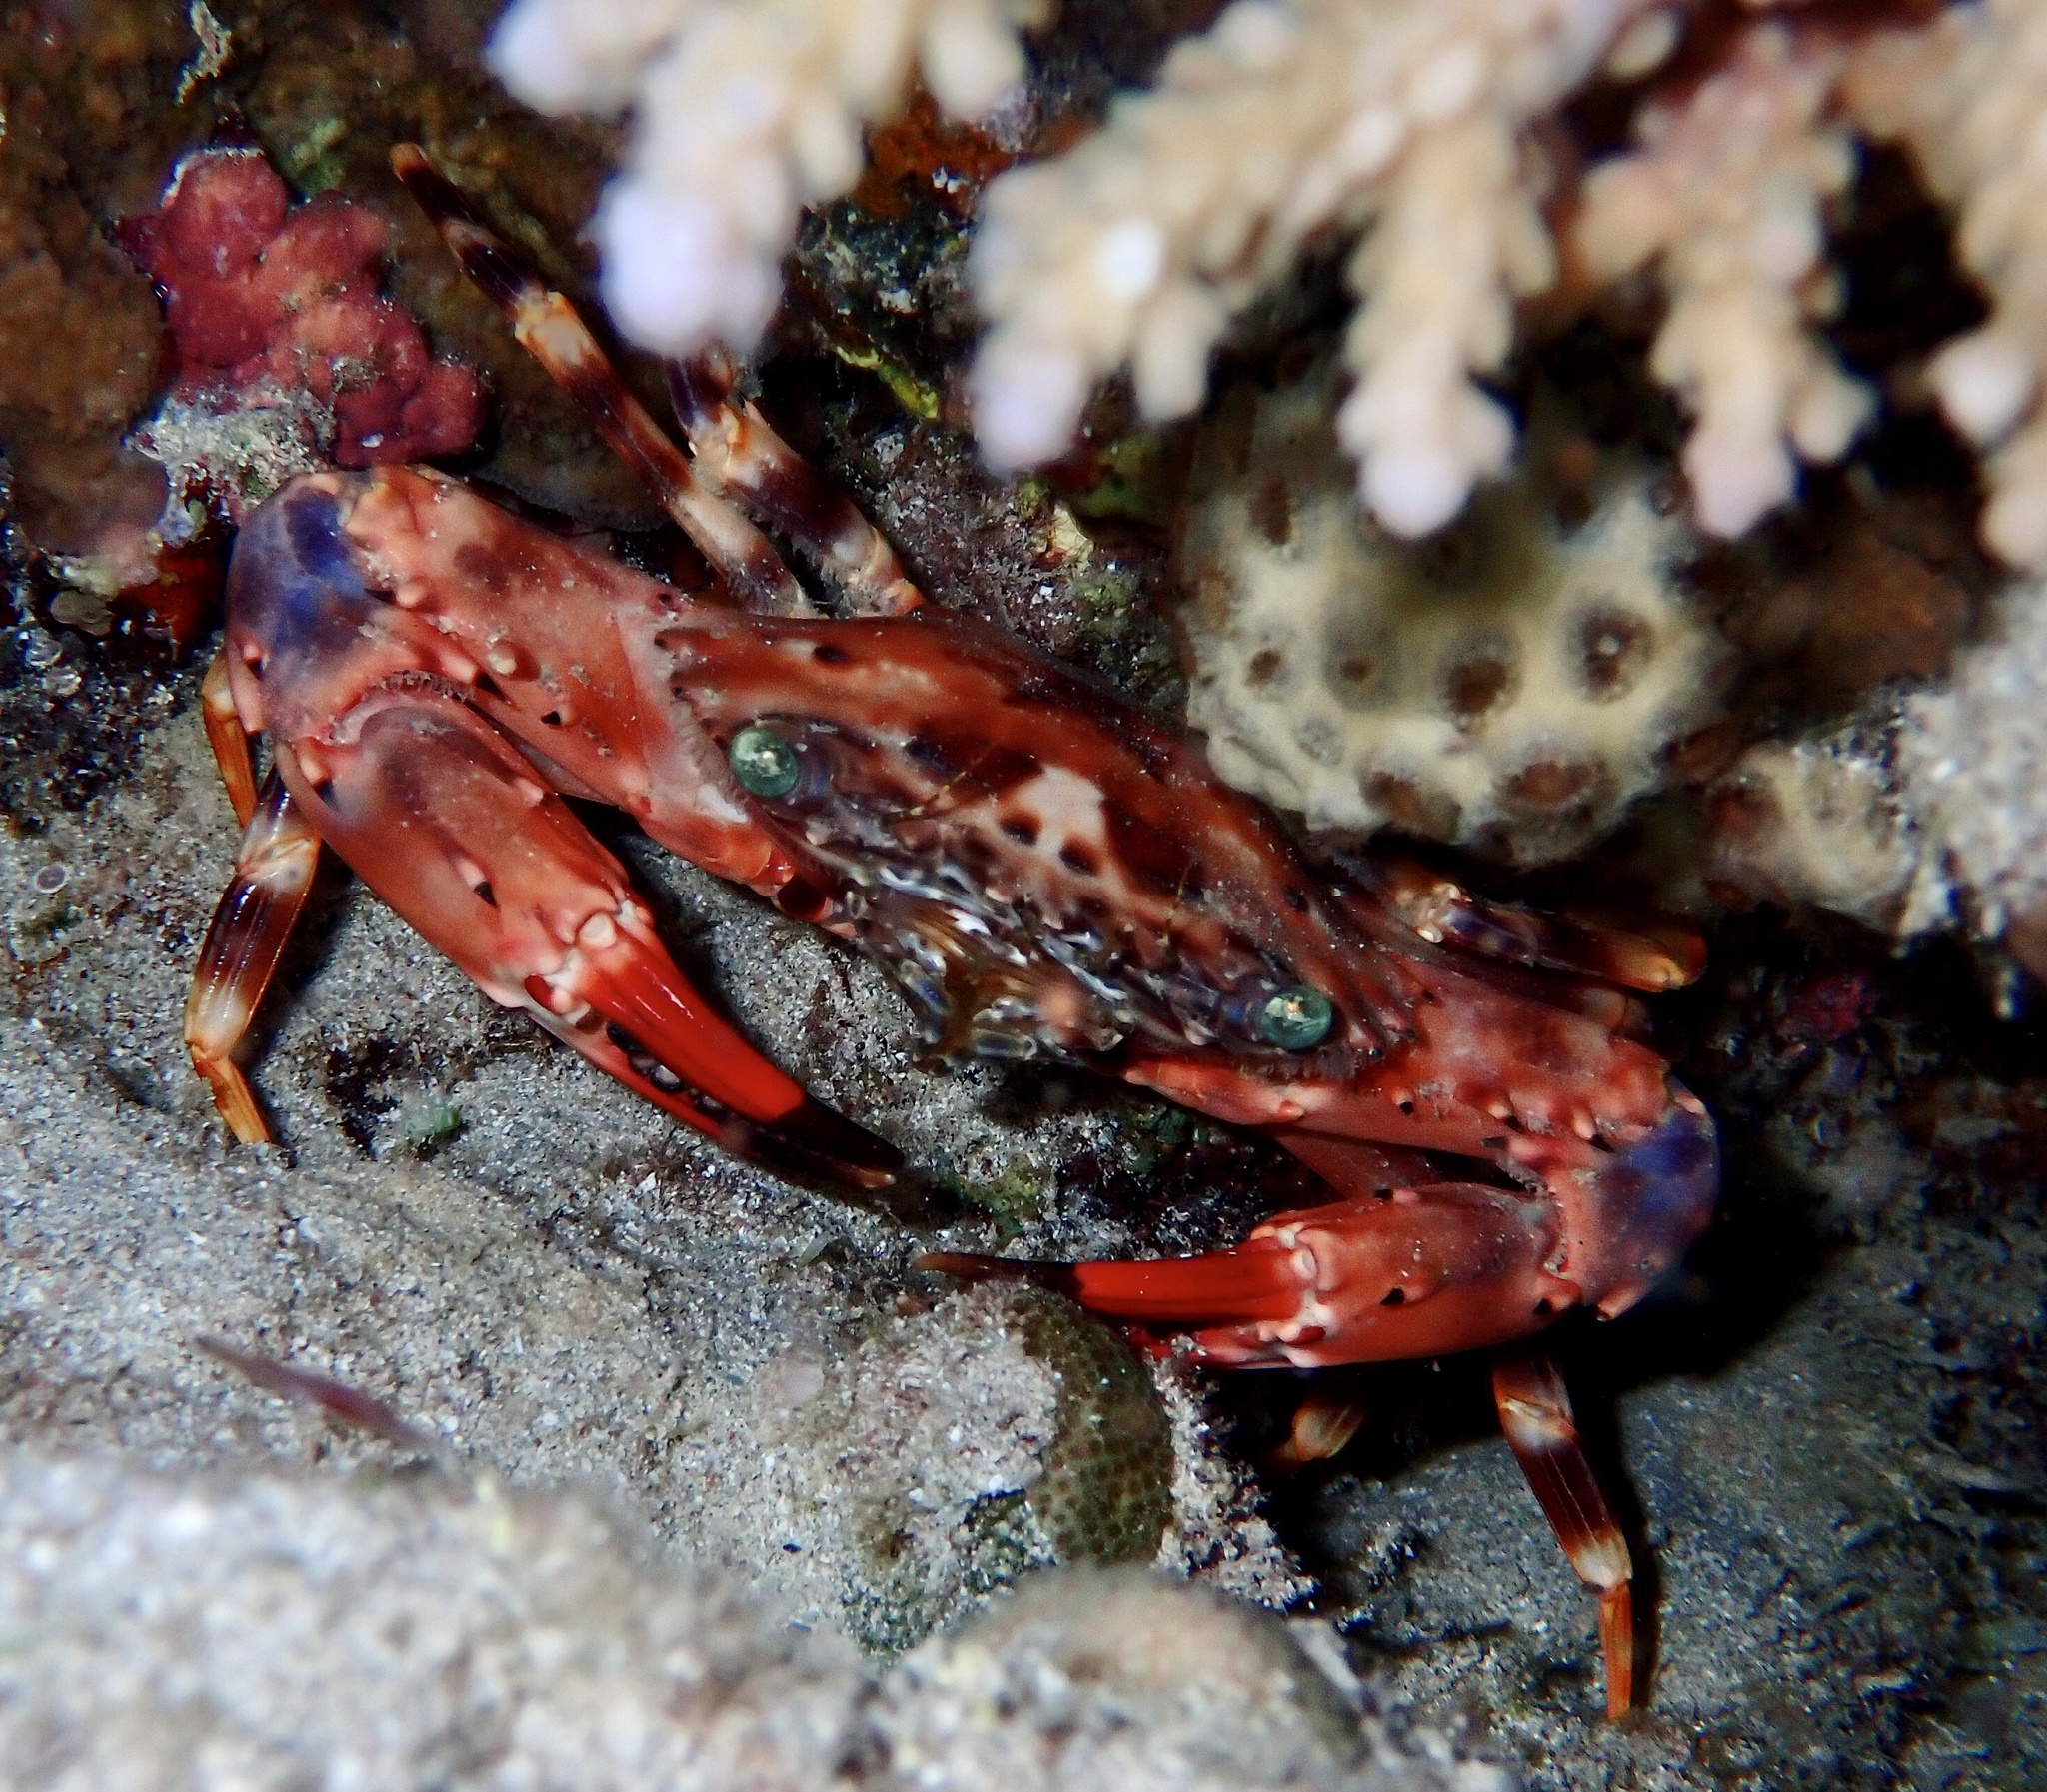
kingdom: Animalia
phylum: Arthropoda
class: Malacostraca
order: Decapoda
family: Portunidae
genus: Gonioinfradens
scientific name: Gonioinfradens paucidentatus
